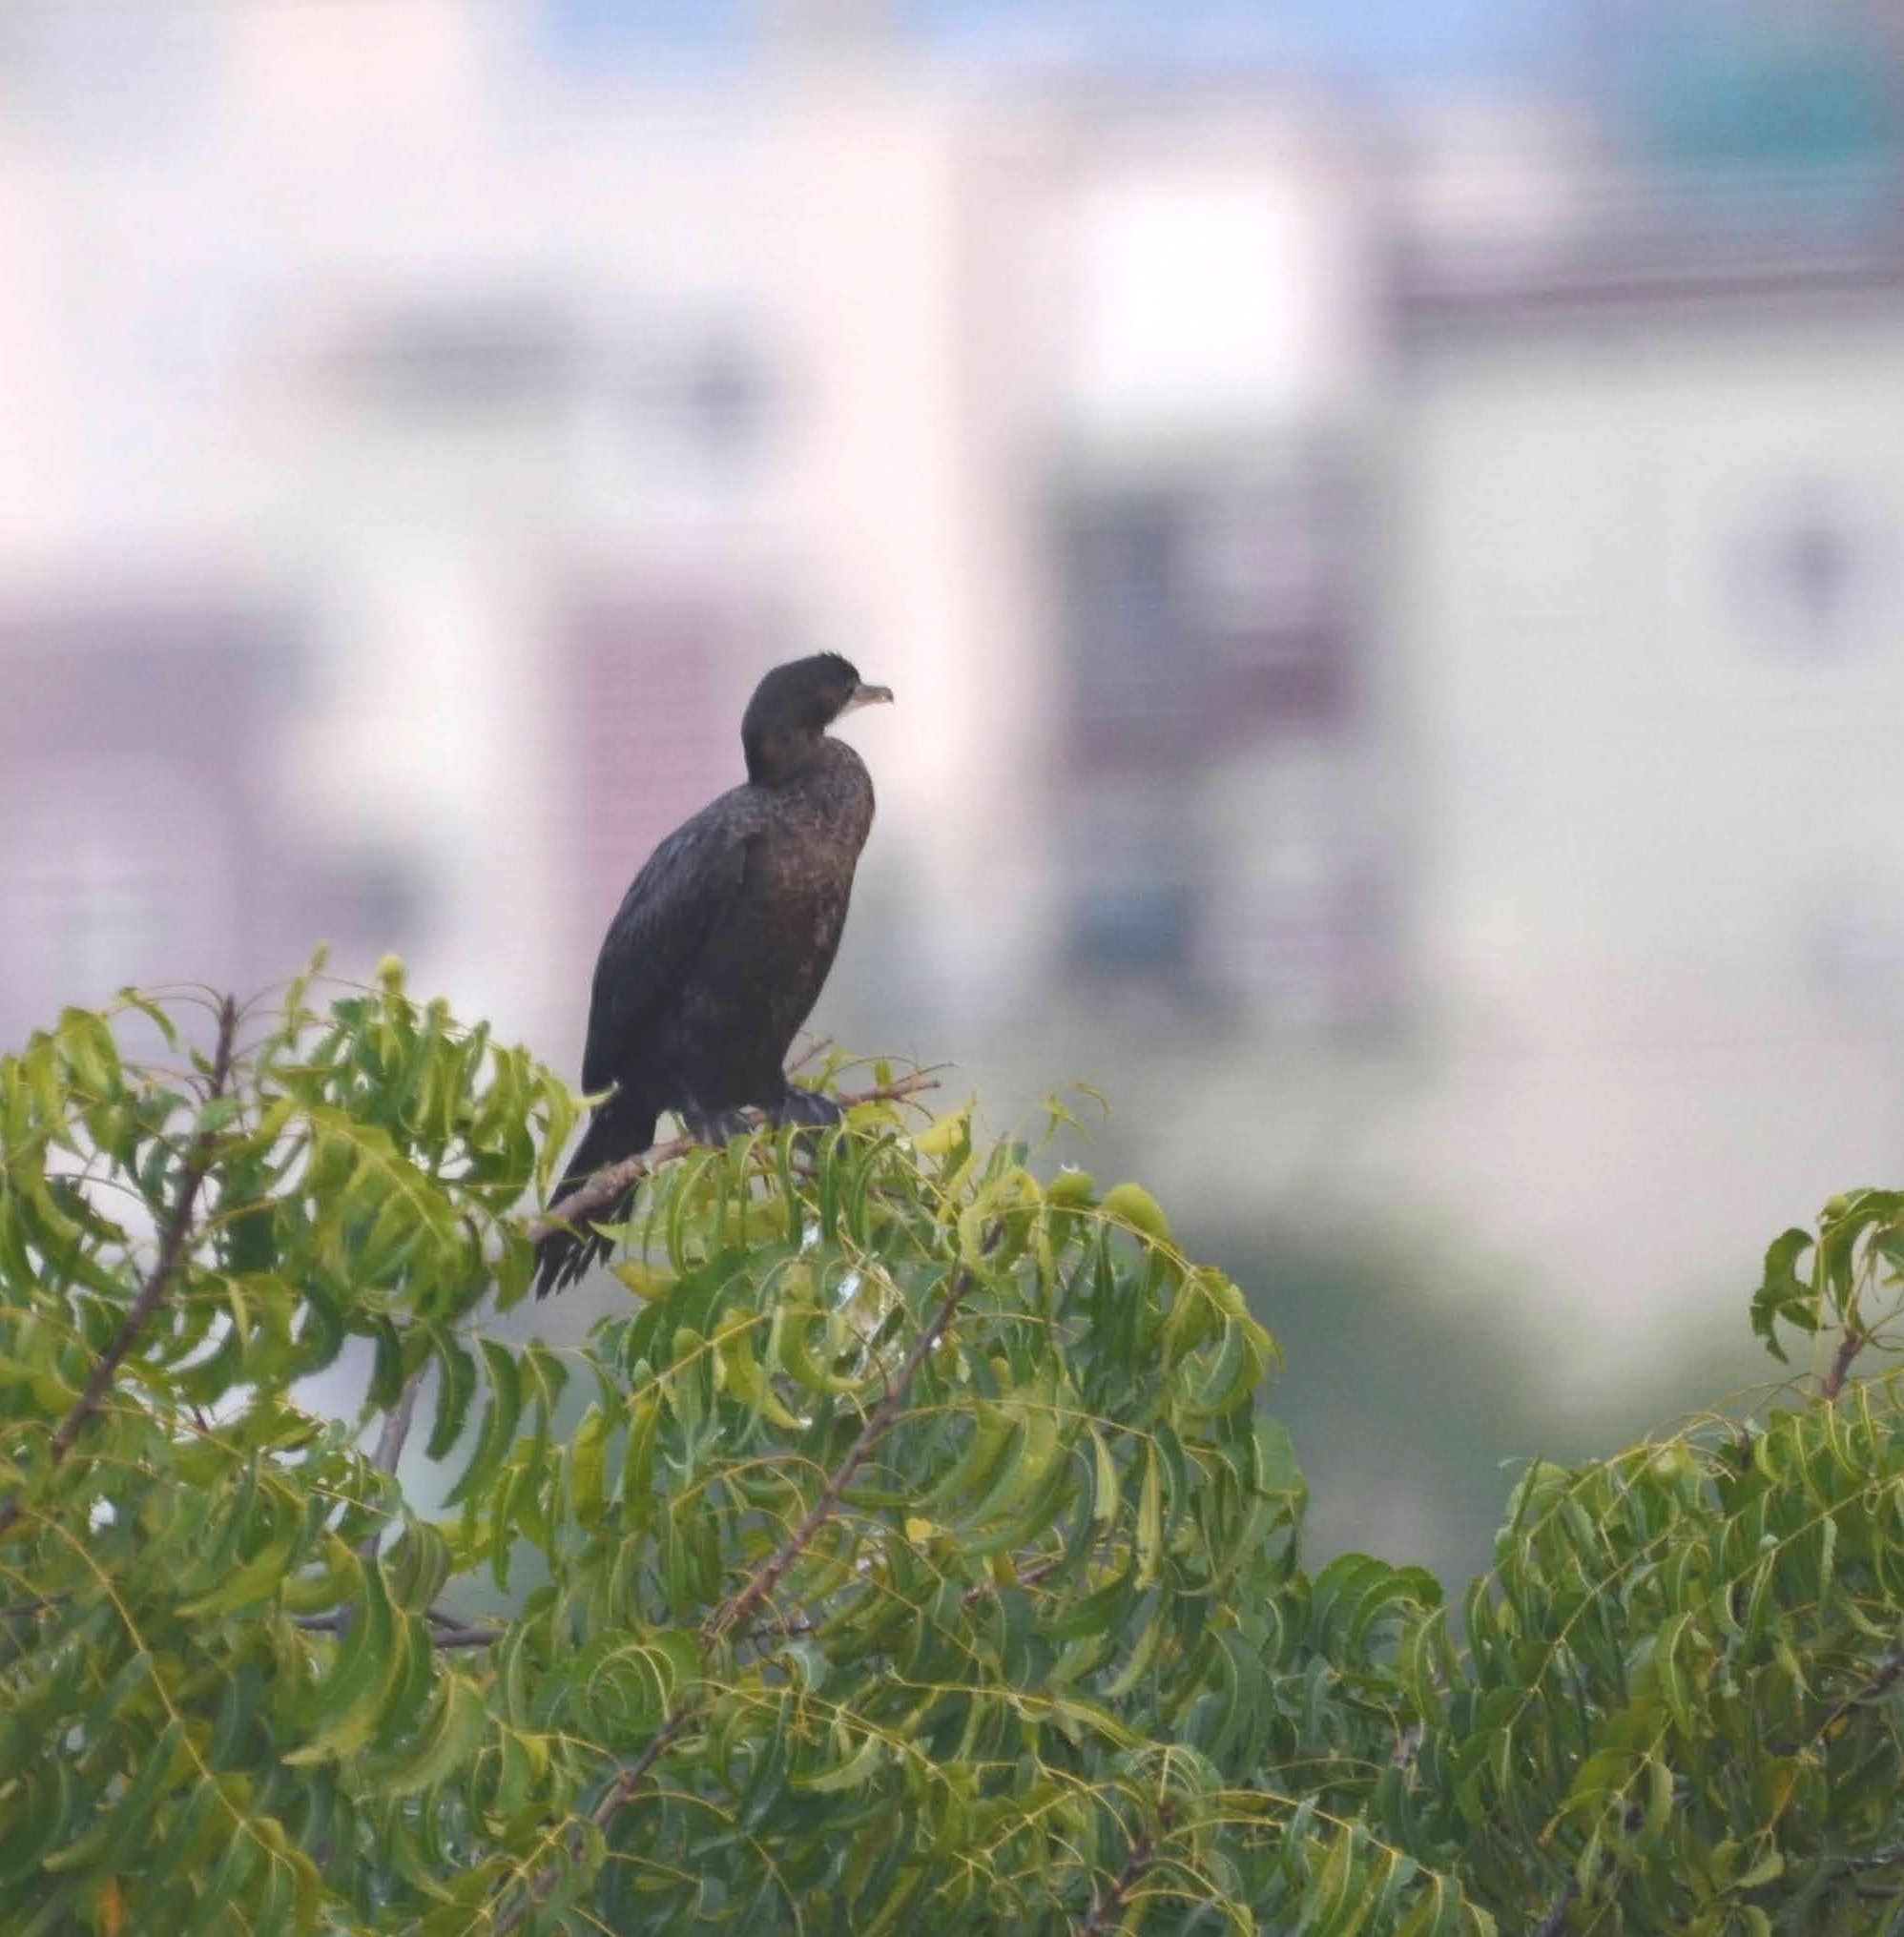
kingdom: Animalia
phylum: Chordata
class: Aves
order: Suliformes
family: Phalacrocoracidae
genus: Microcarbo
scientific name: Microcarbo niger
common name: Little cormorant
